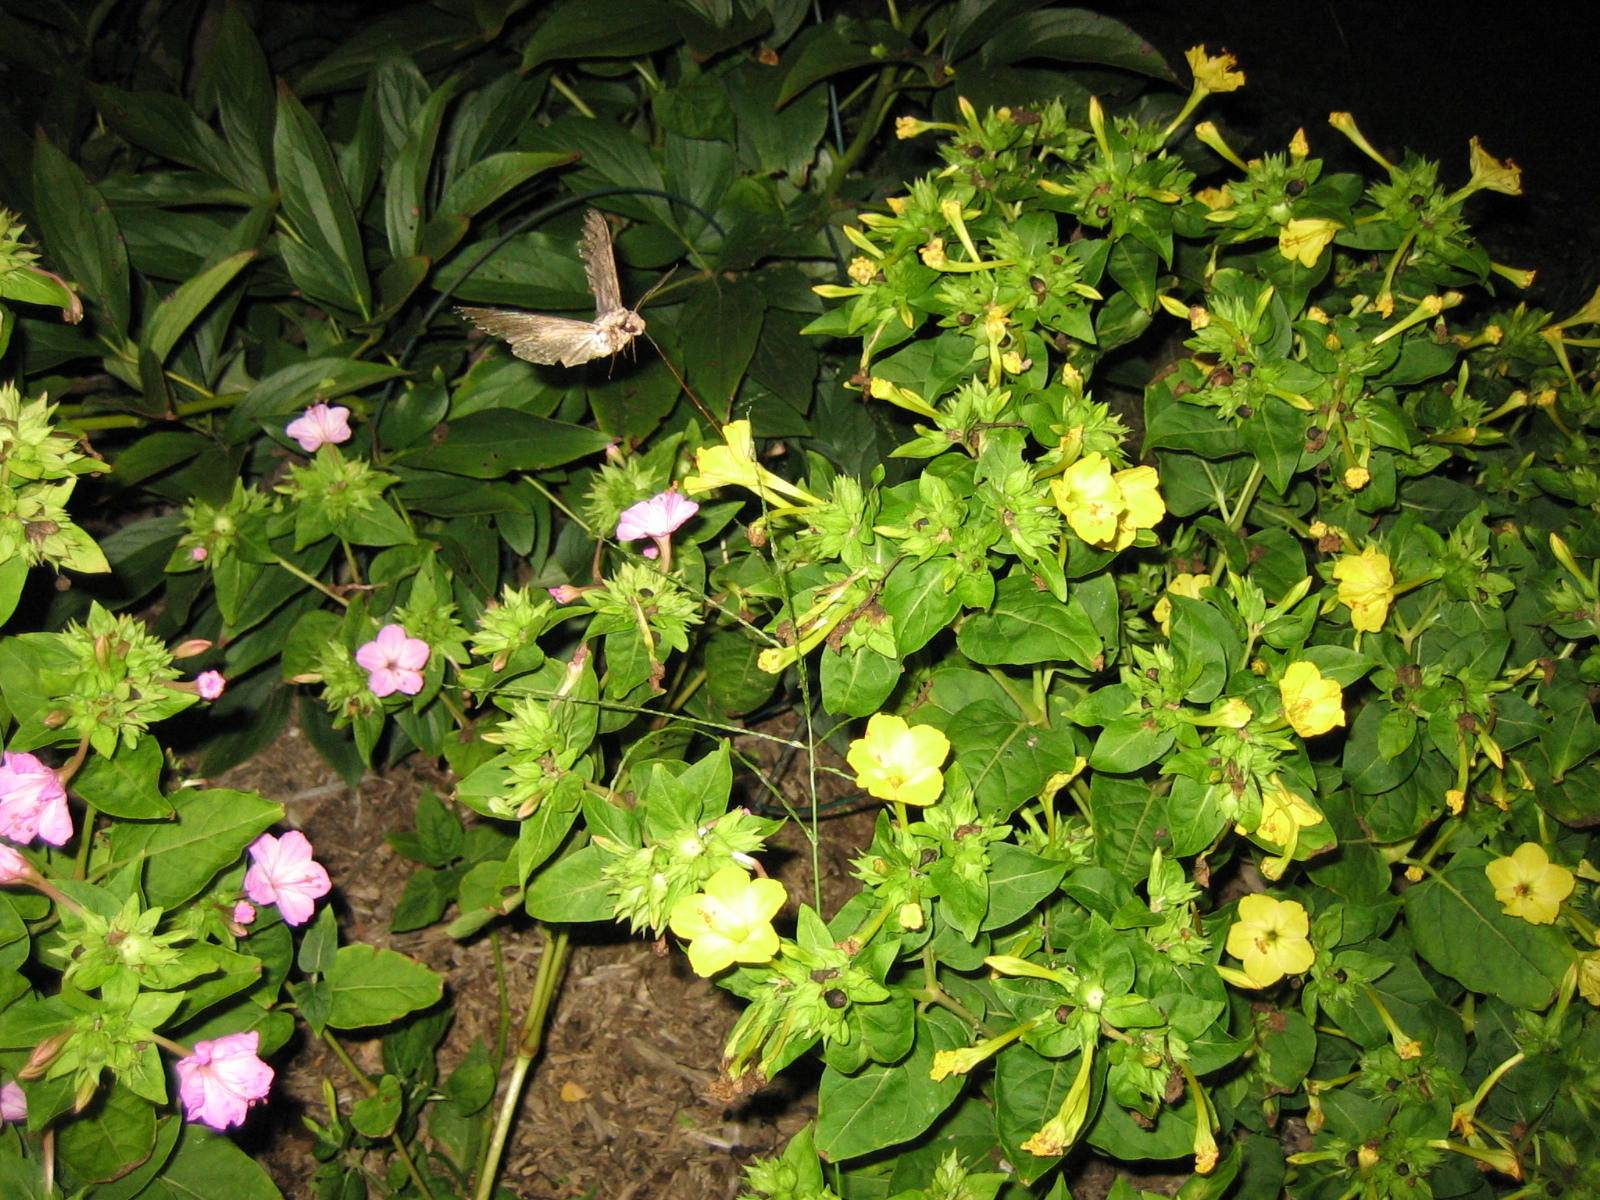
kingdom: Animalia
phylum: Arthropoda
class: Insecta
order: Lepidoptera
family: Sphingidae
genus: Manduca
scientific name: Manduca sexta
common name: Carolina sphinx
